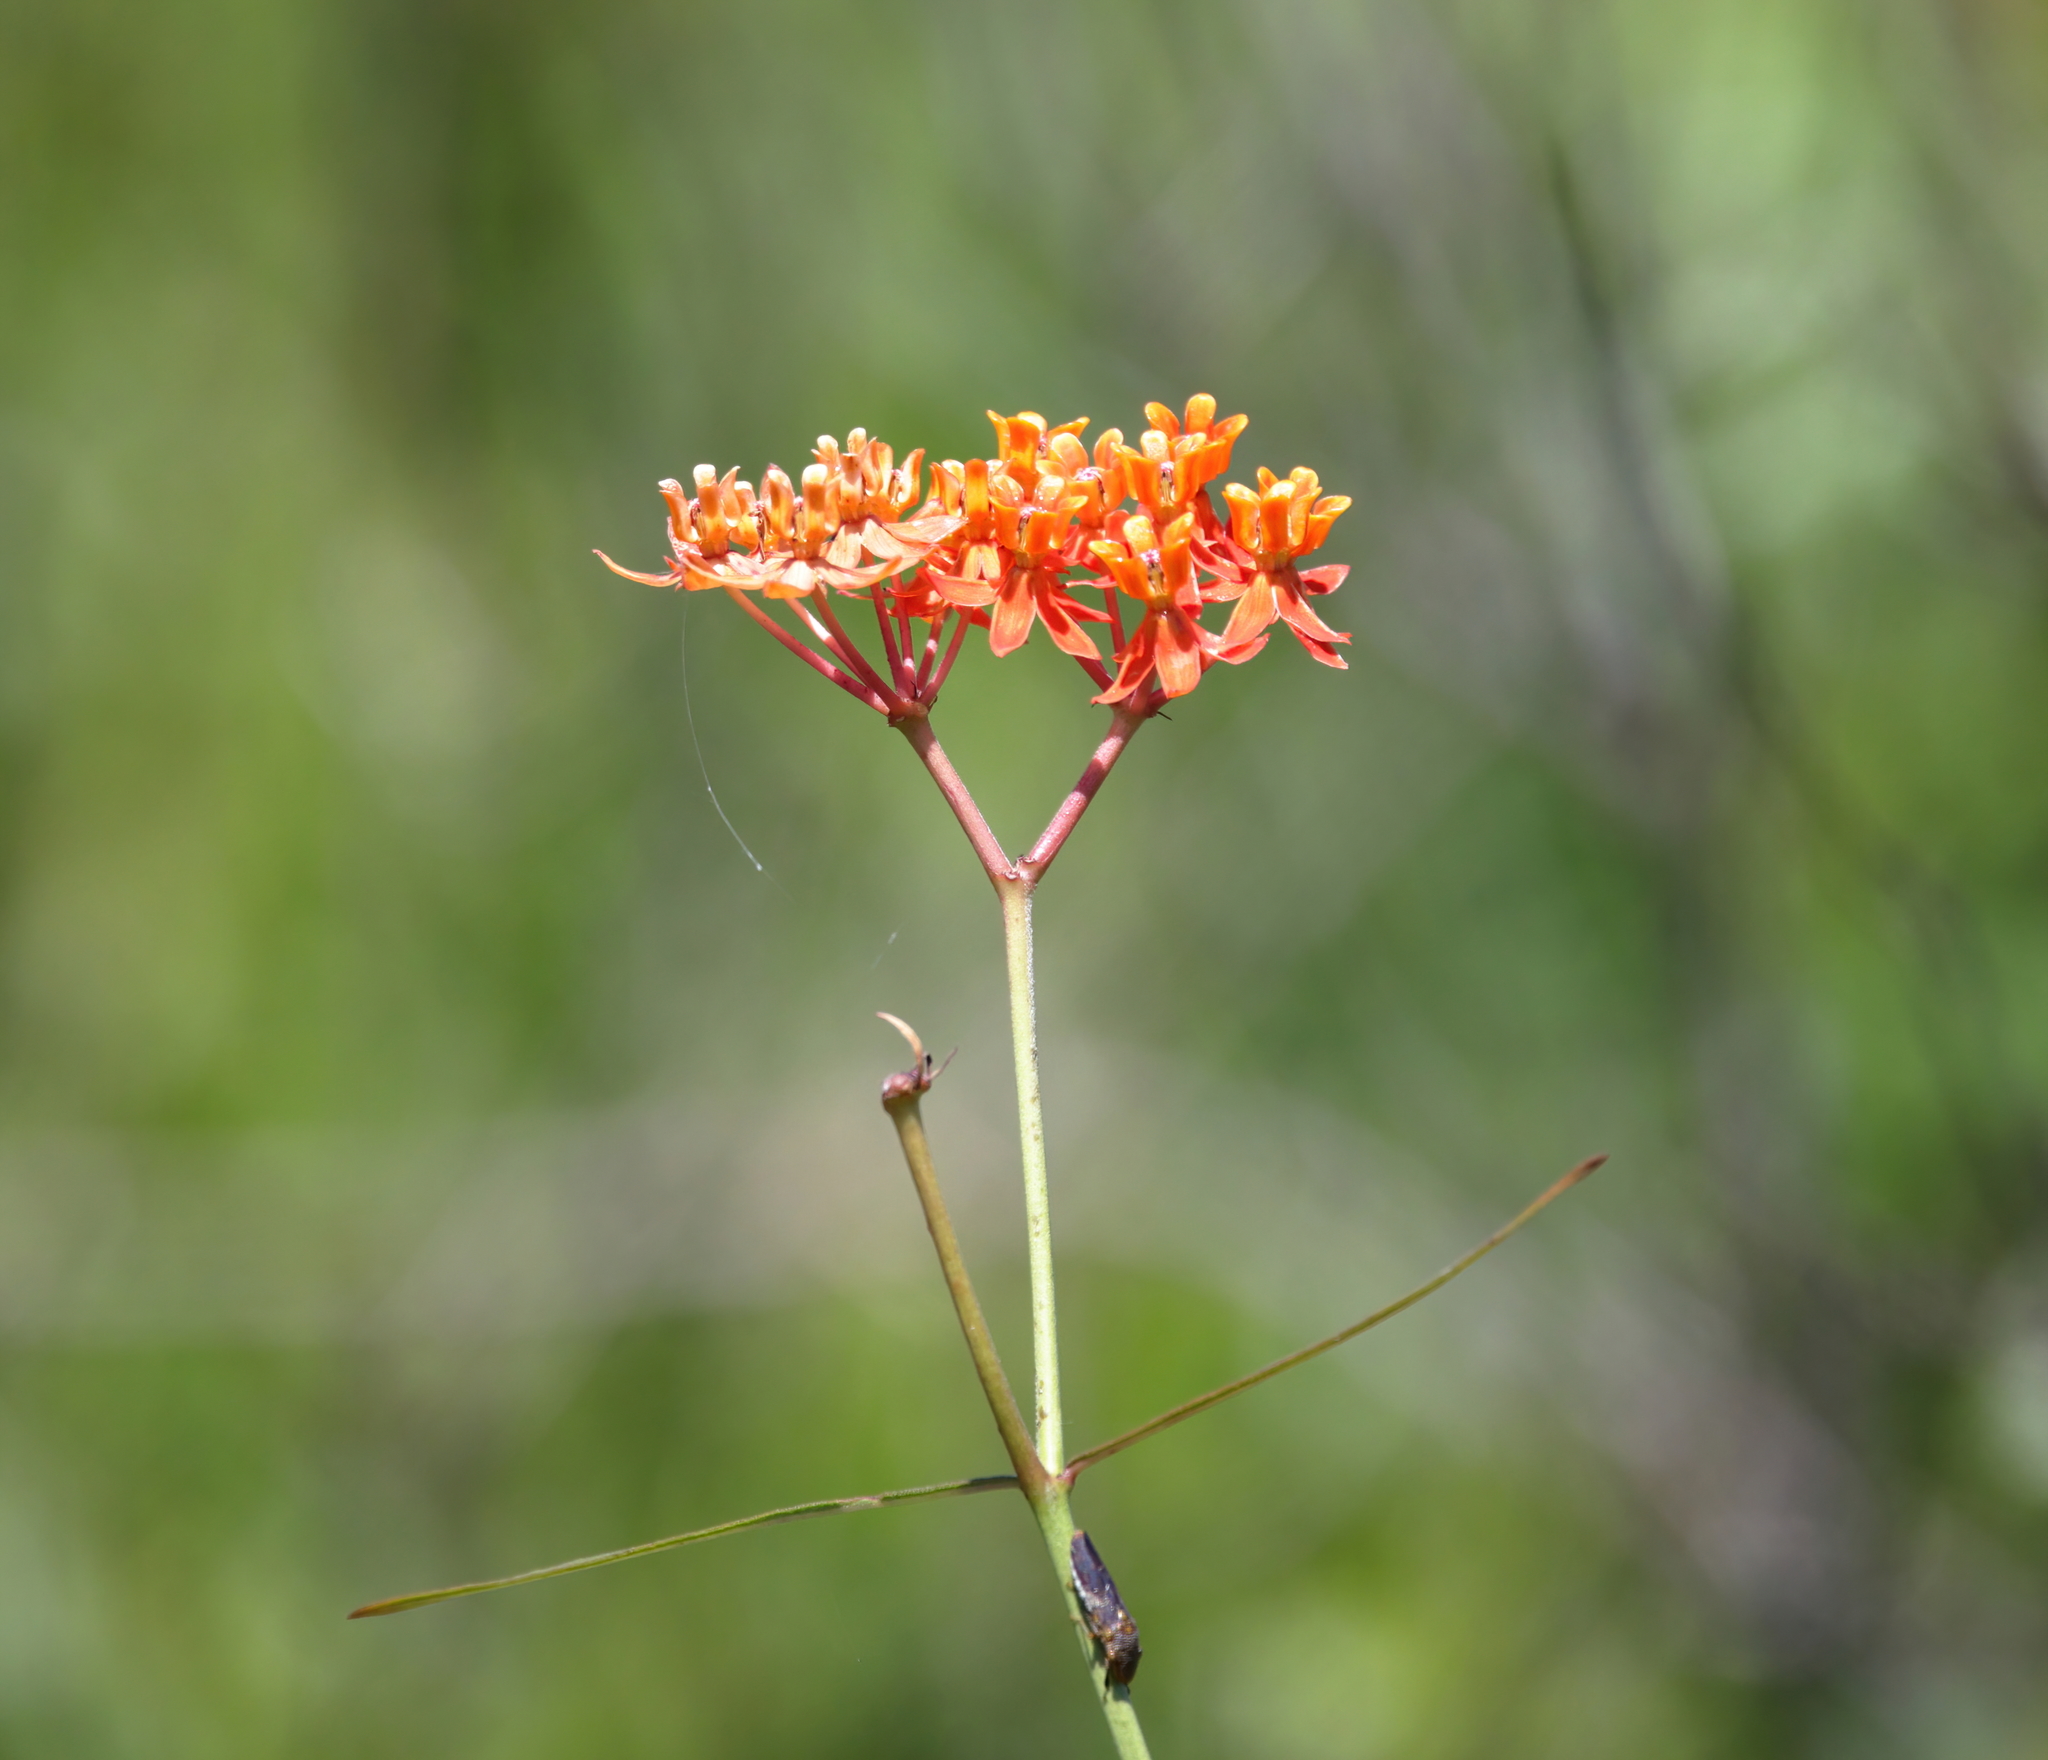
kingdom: Plantae
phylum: Tracheophyta
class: Magnoliopsida
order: Gentianales
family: Apocynaceae
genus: Asclepias
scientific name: Asclepias lanceolata
